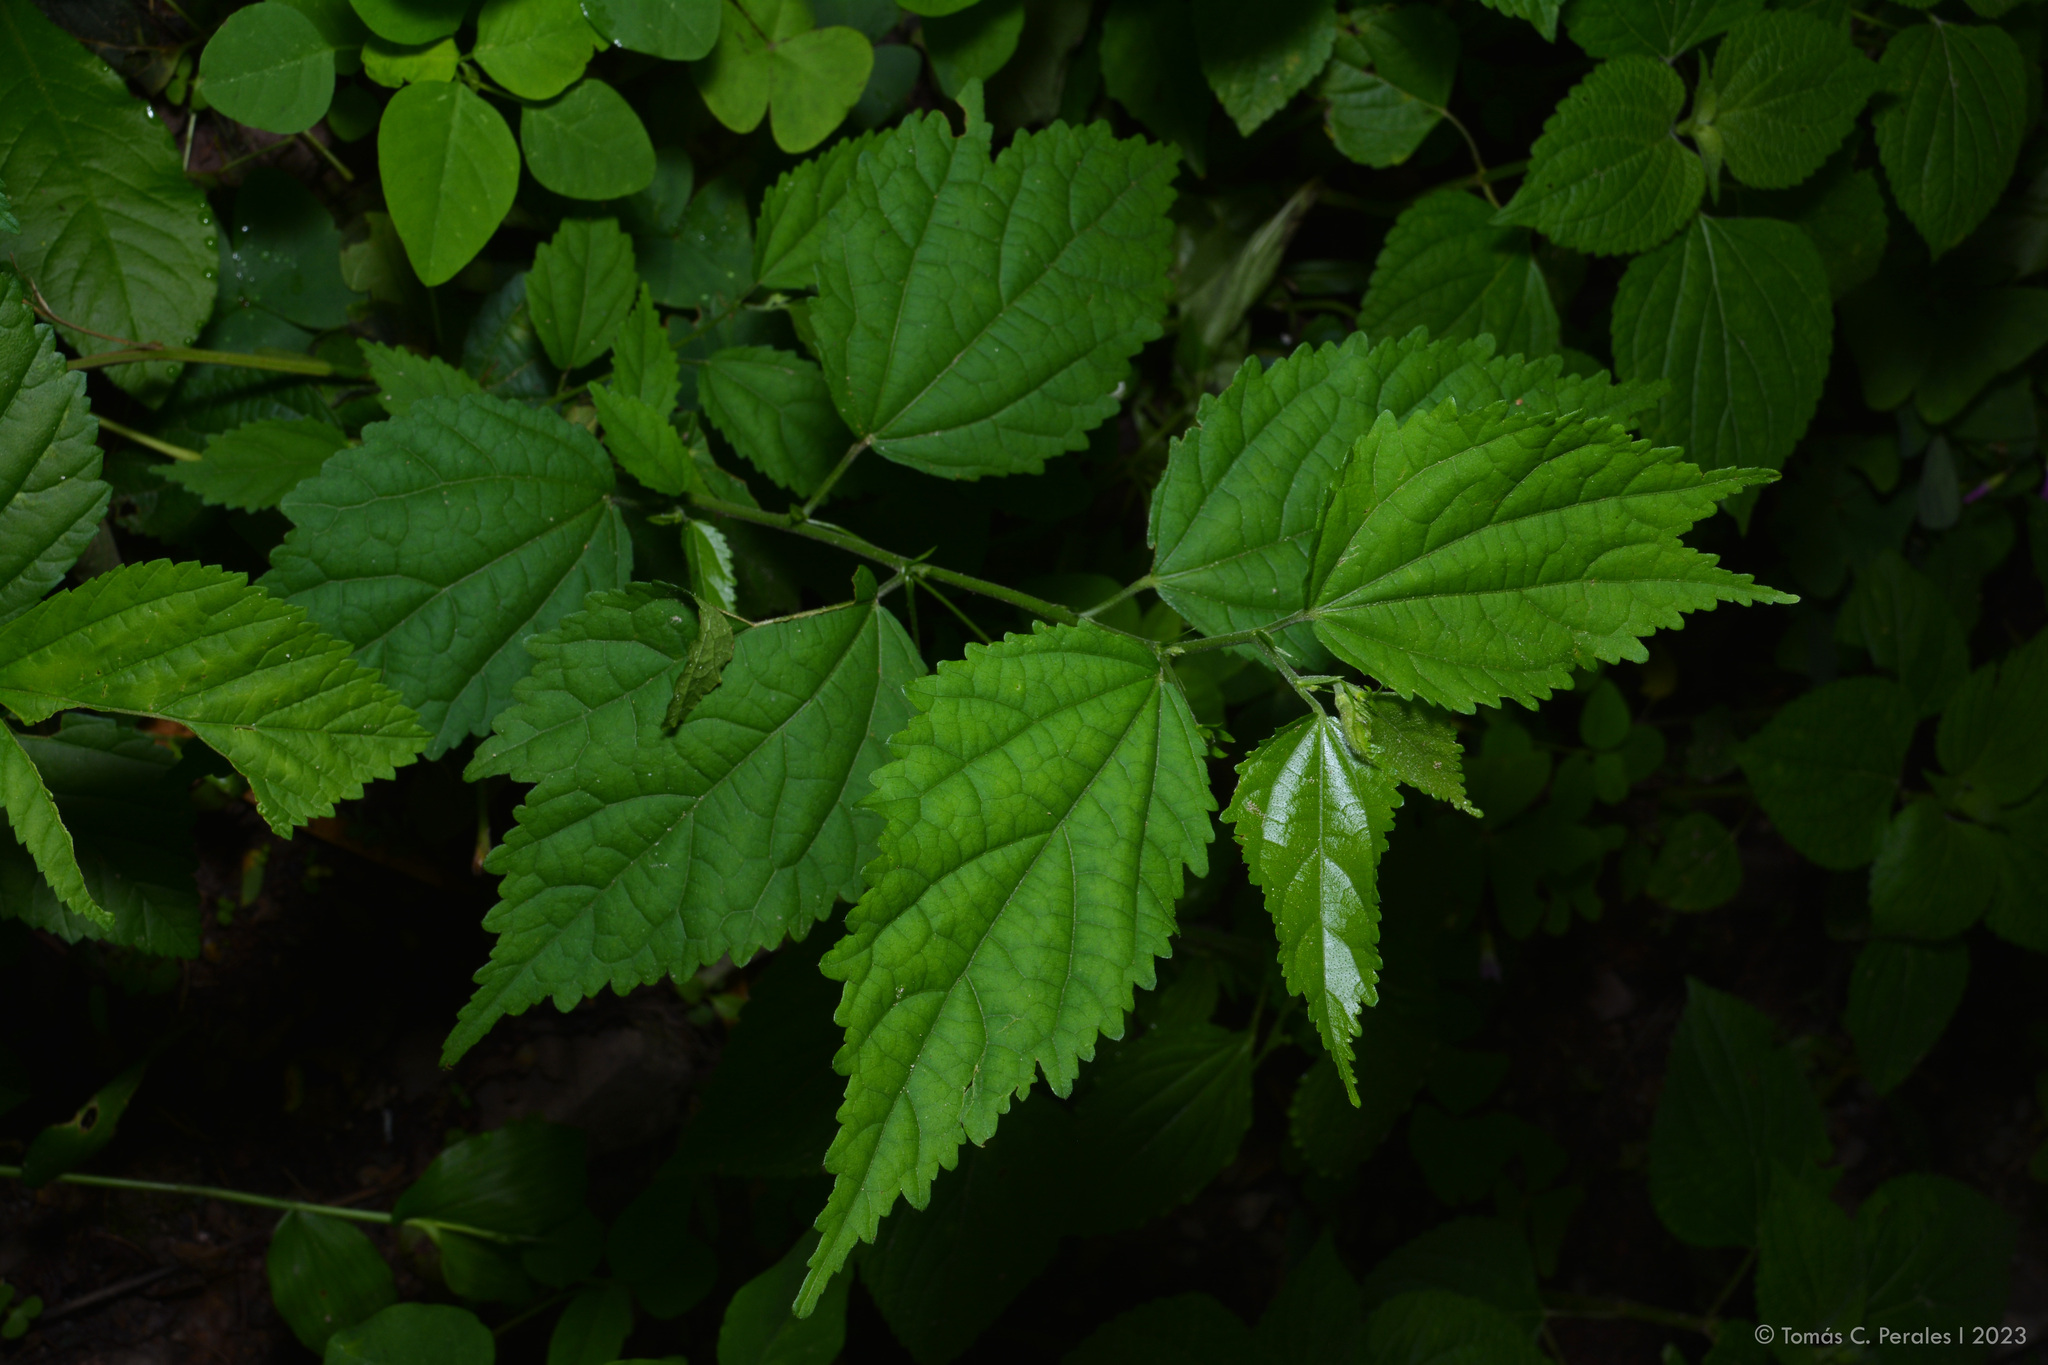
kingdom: Plantae
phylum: Tracheophyta
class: Magnoliopsida
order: Malvales
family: Malvaceae
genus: Pavonia
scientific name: Pavonia sepium
